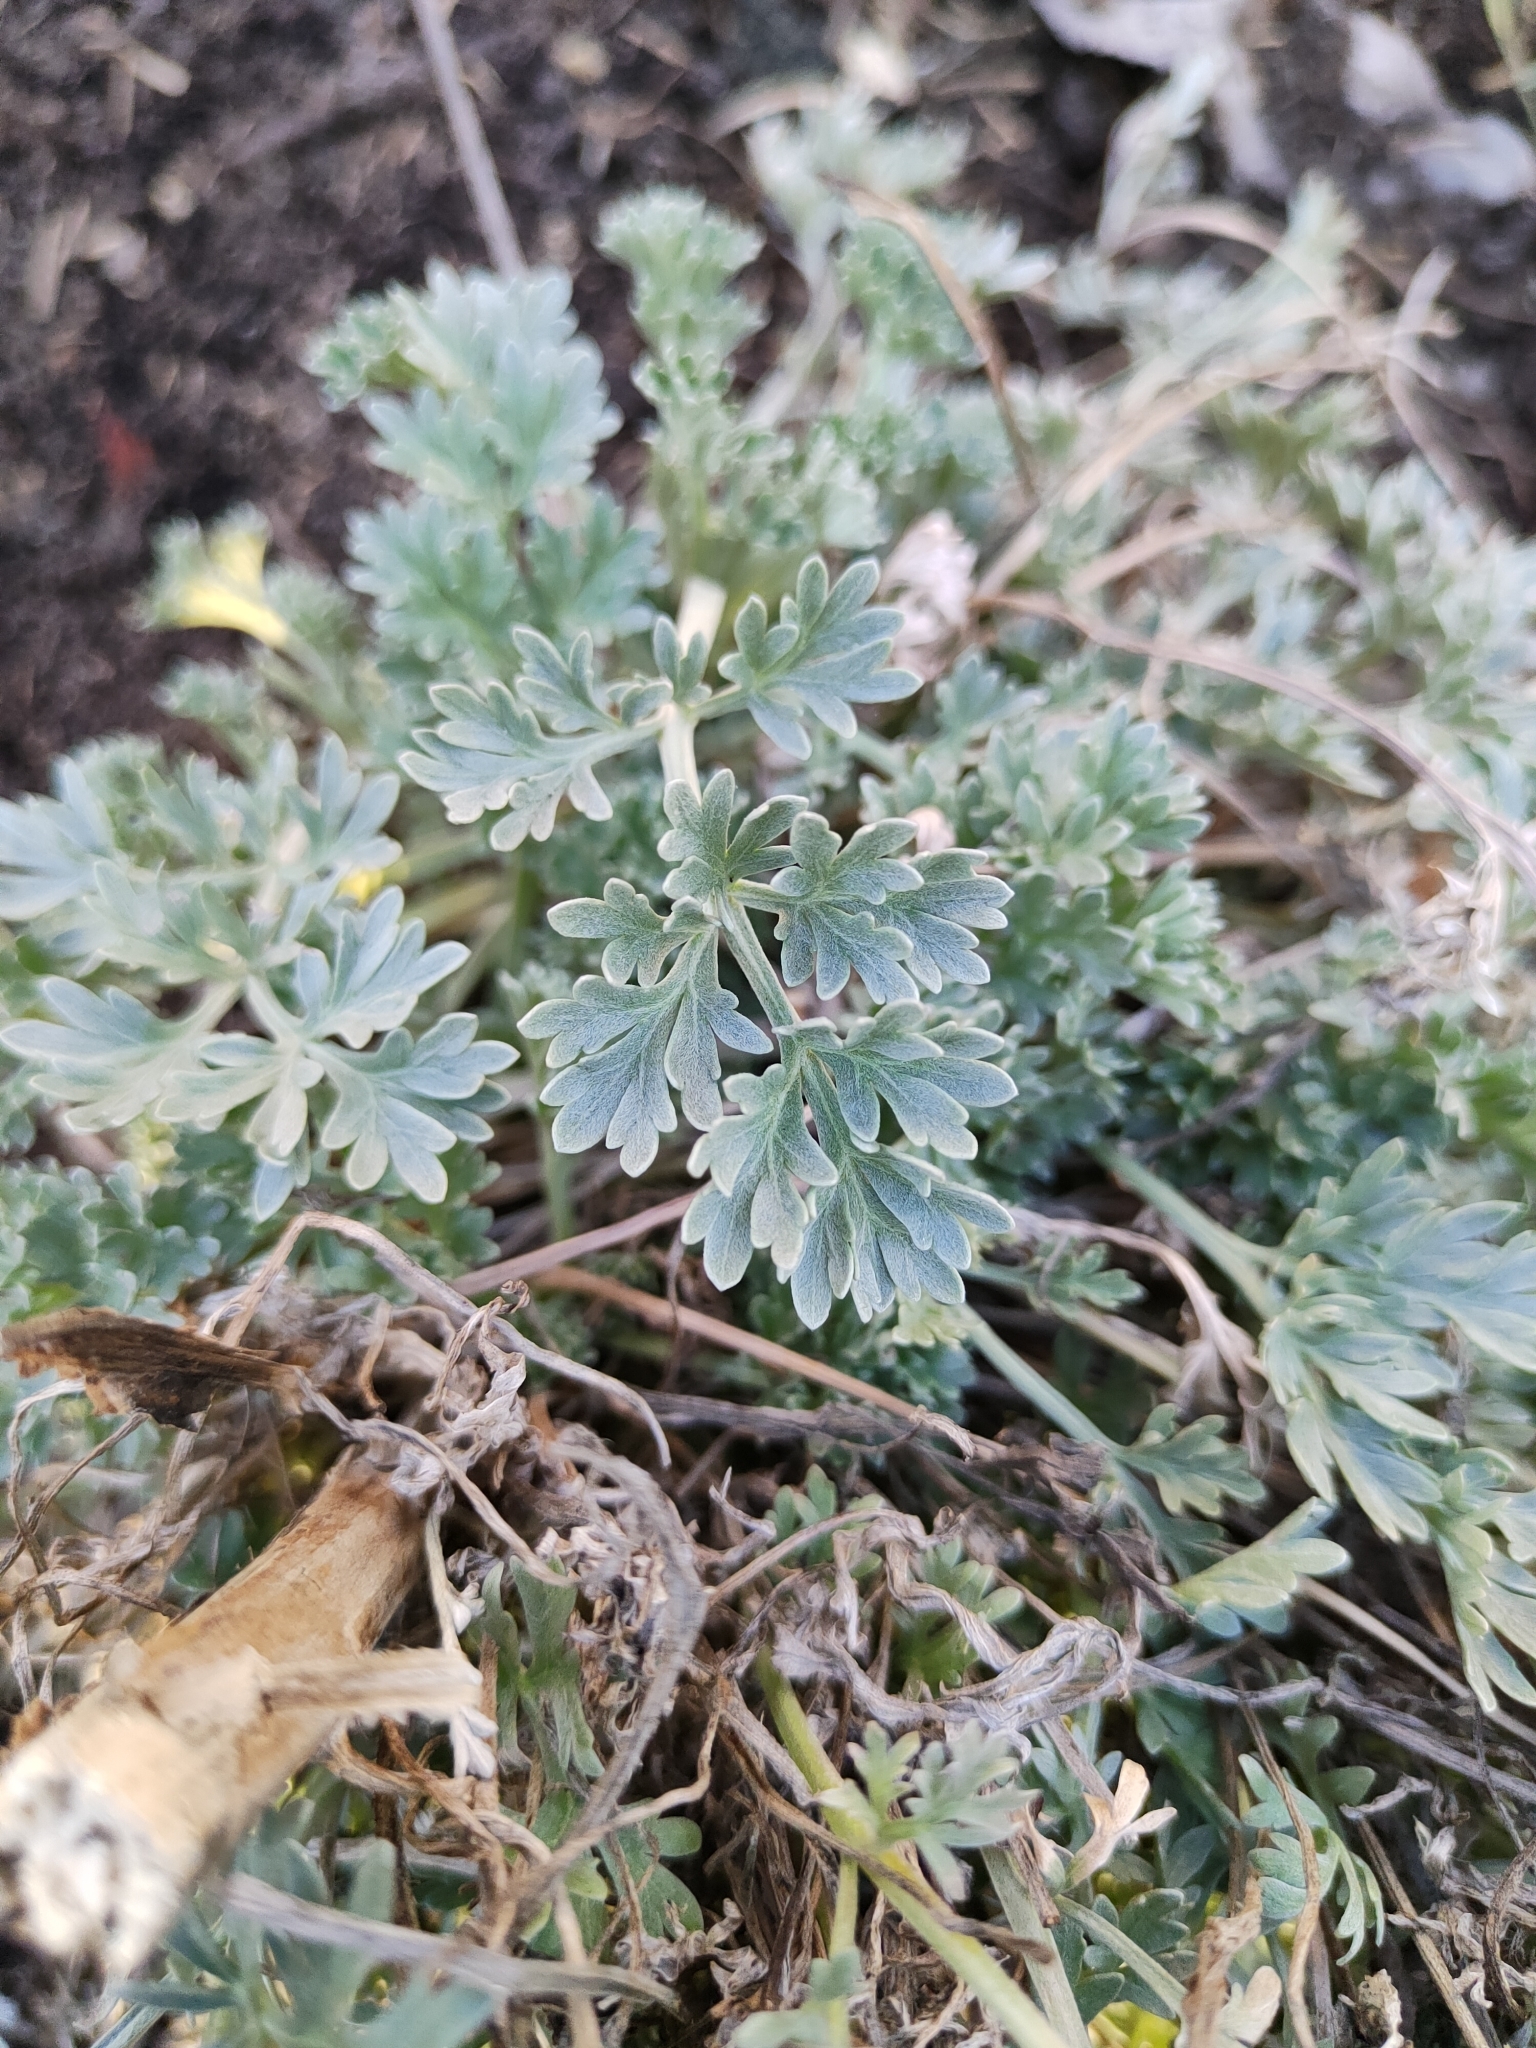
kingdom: Plantae
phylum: Tracheophyta
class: Magnoliopsida
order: Asterales
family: Asteraceae
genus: Artemisia
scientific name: Artemisia absinthium
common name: Wormwood
